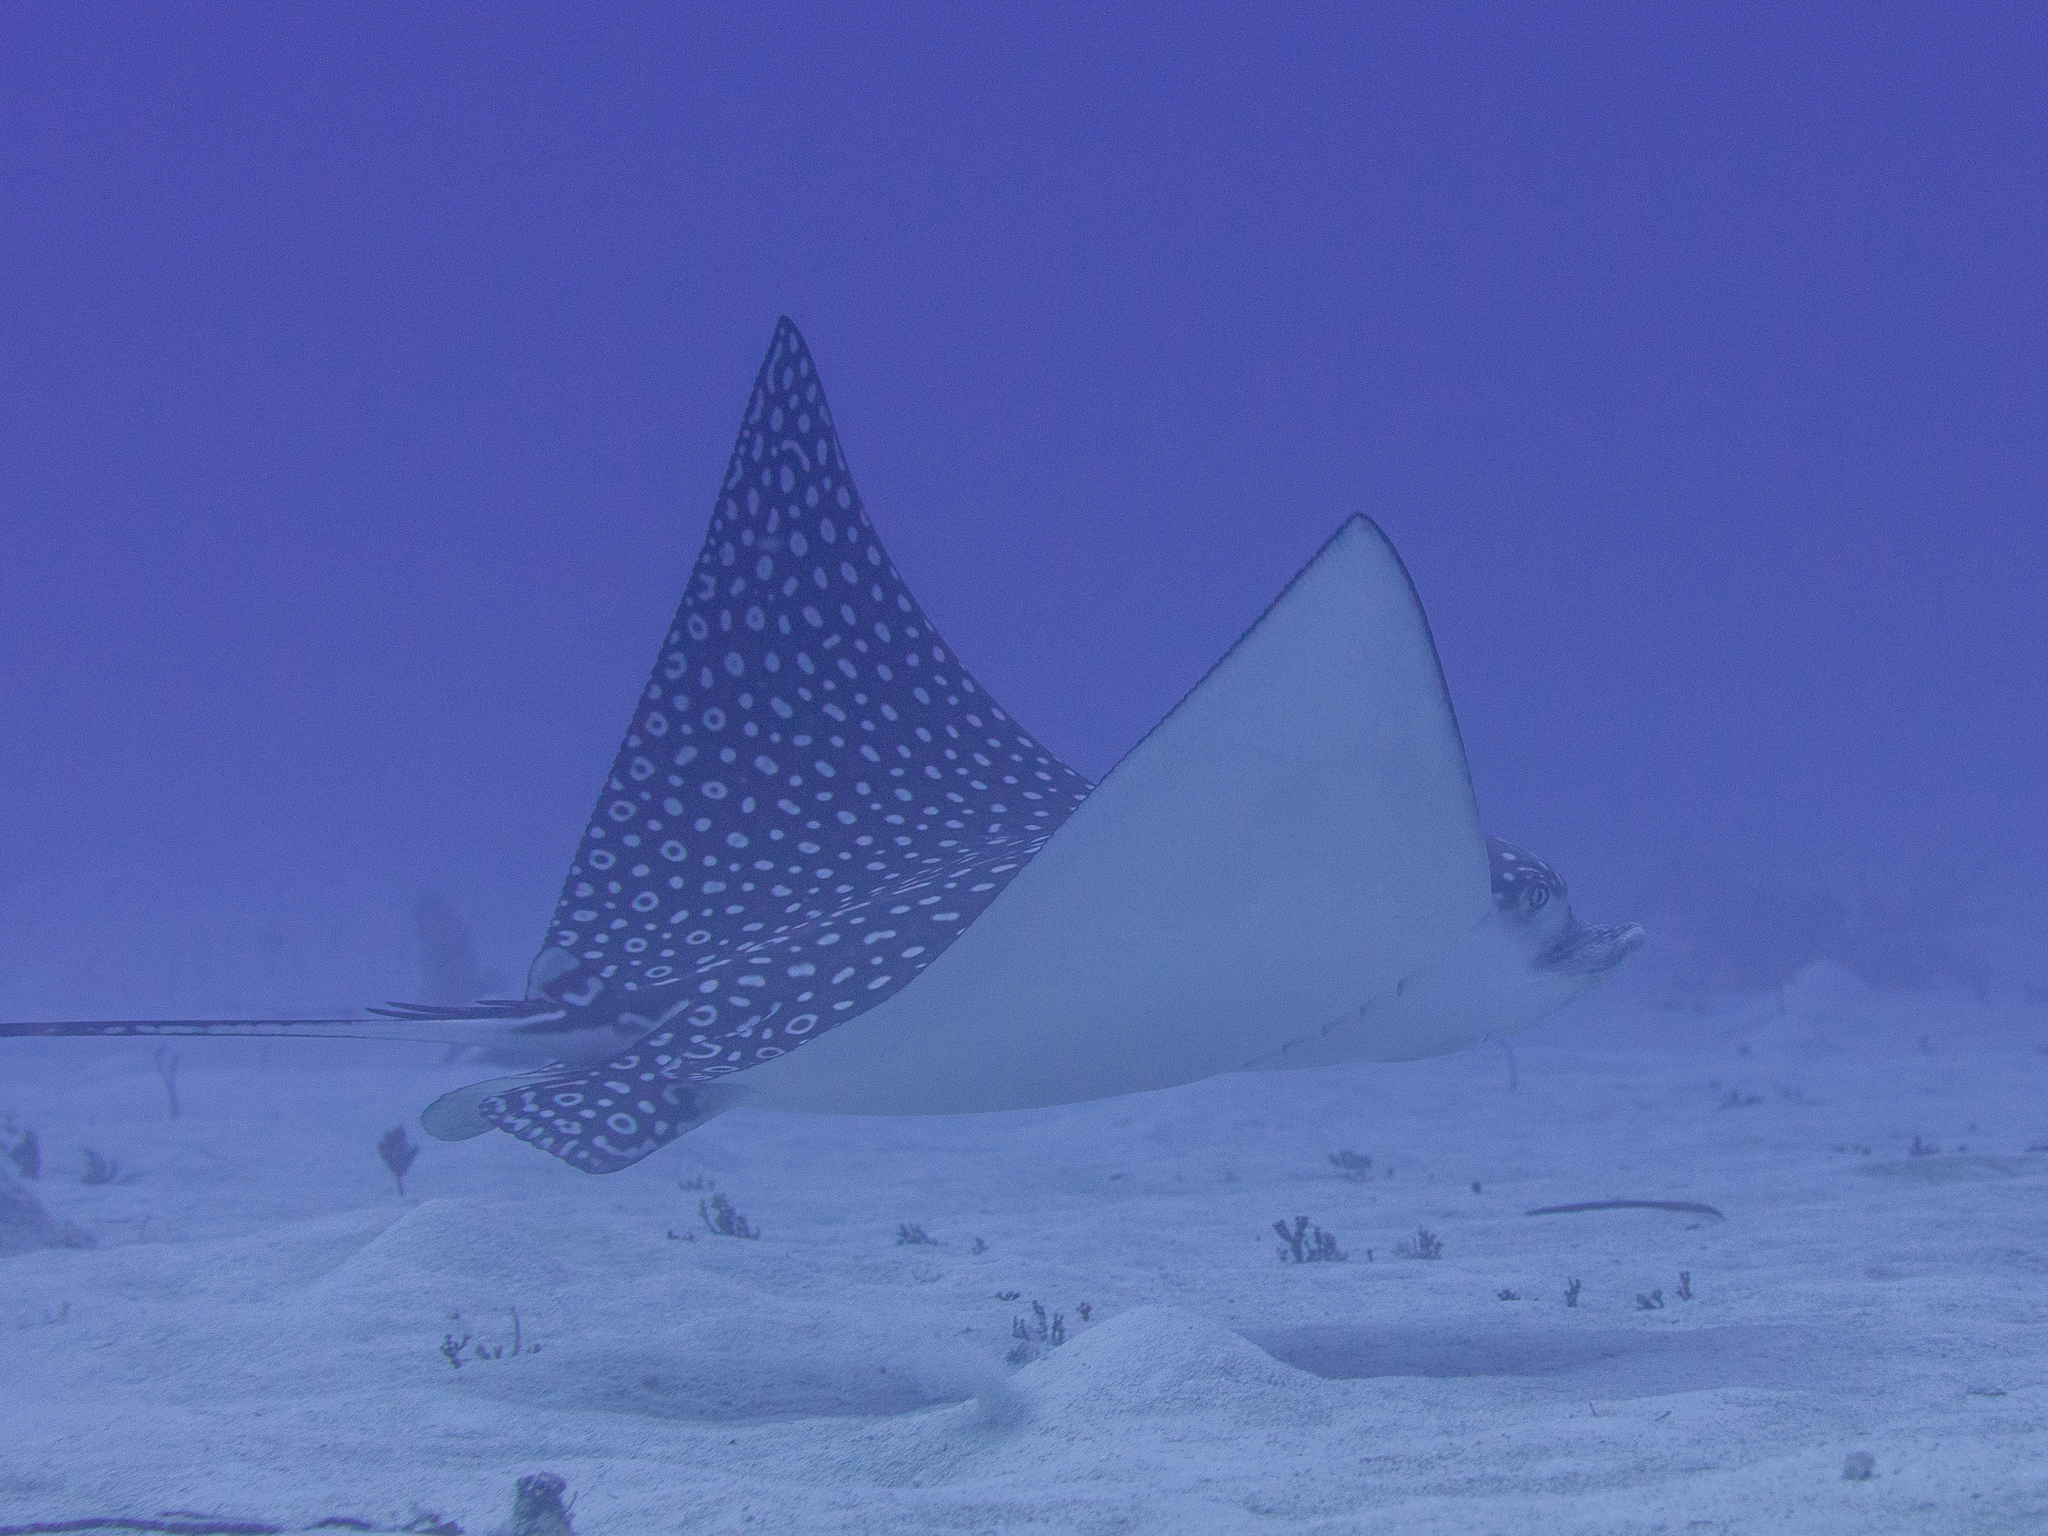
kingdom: Animalia
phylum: Chordata
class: Elasmobranchii
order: Myliobatiformes
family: Myliobatidae
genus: Aetobatus
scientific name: Aetobatus narinari
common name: Spotted eagle ray
